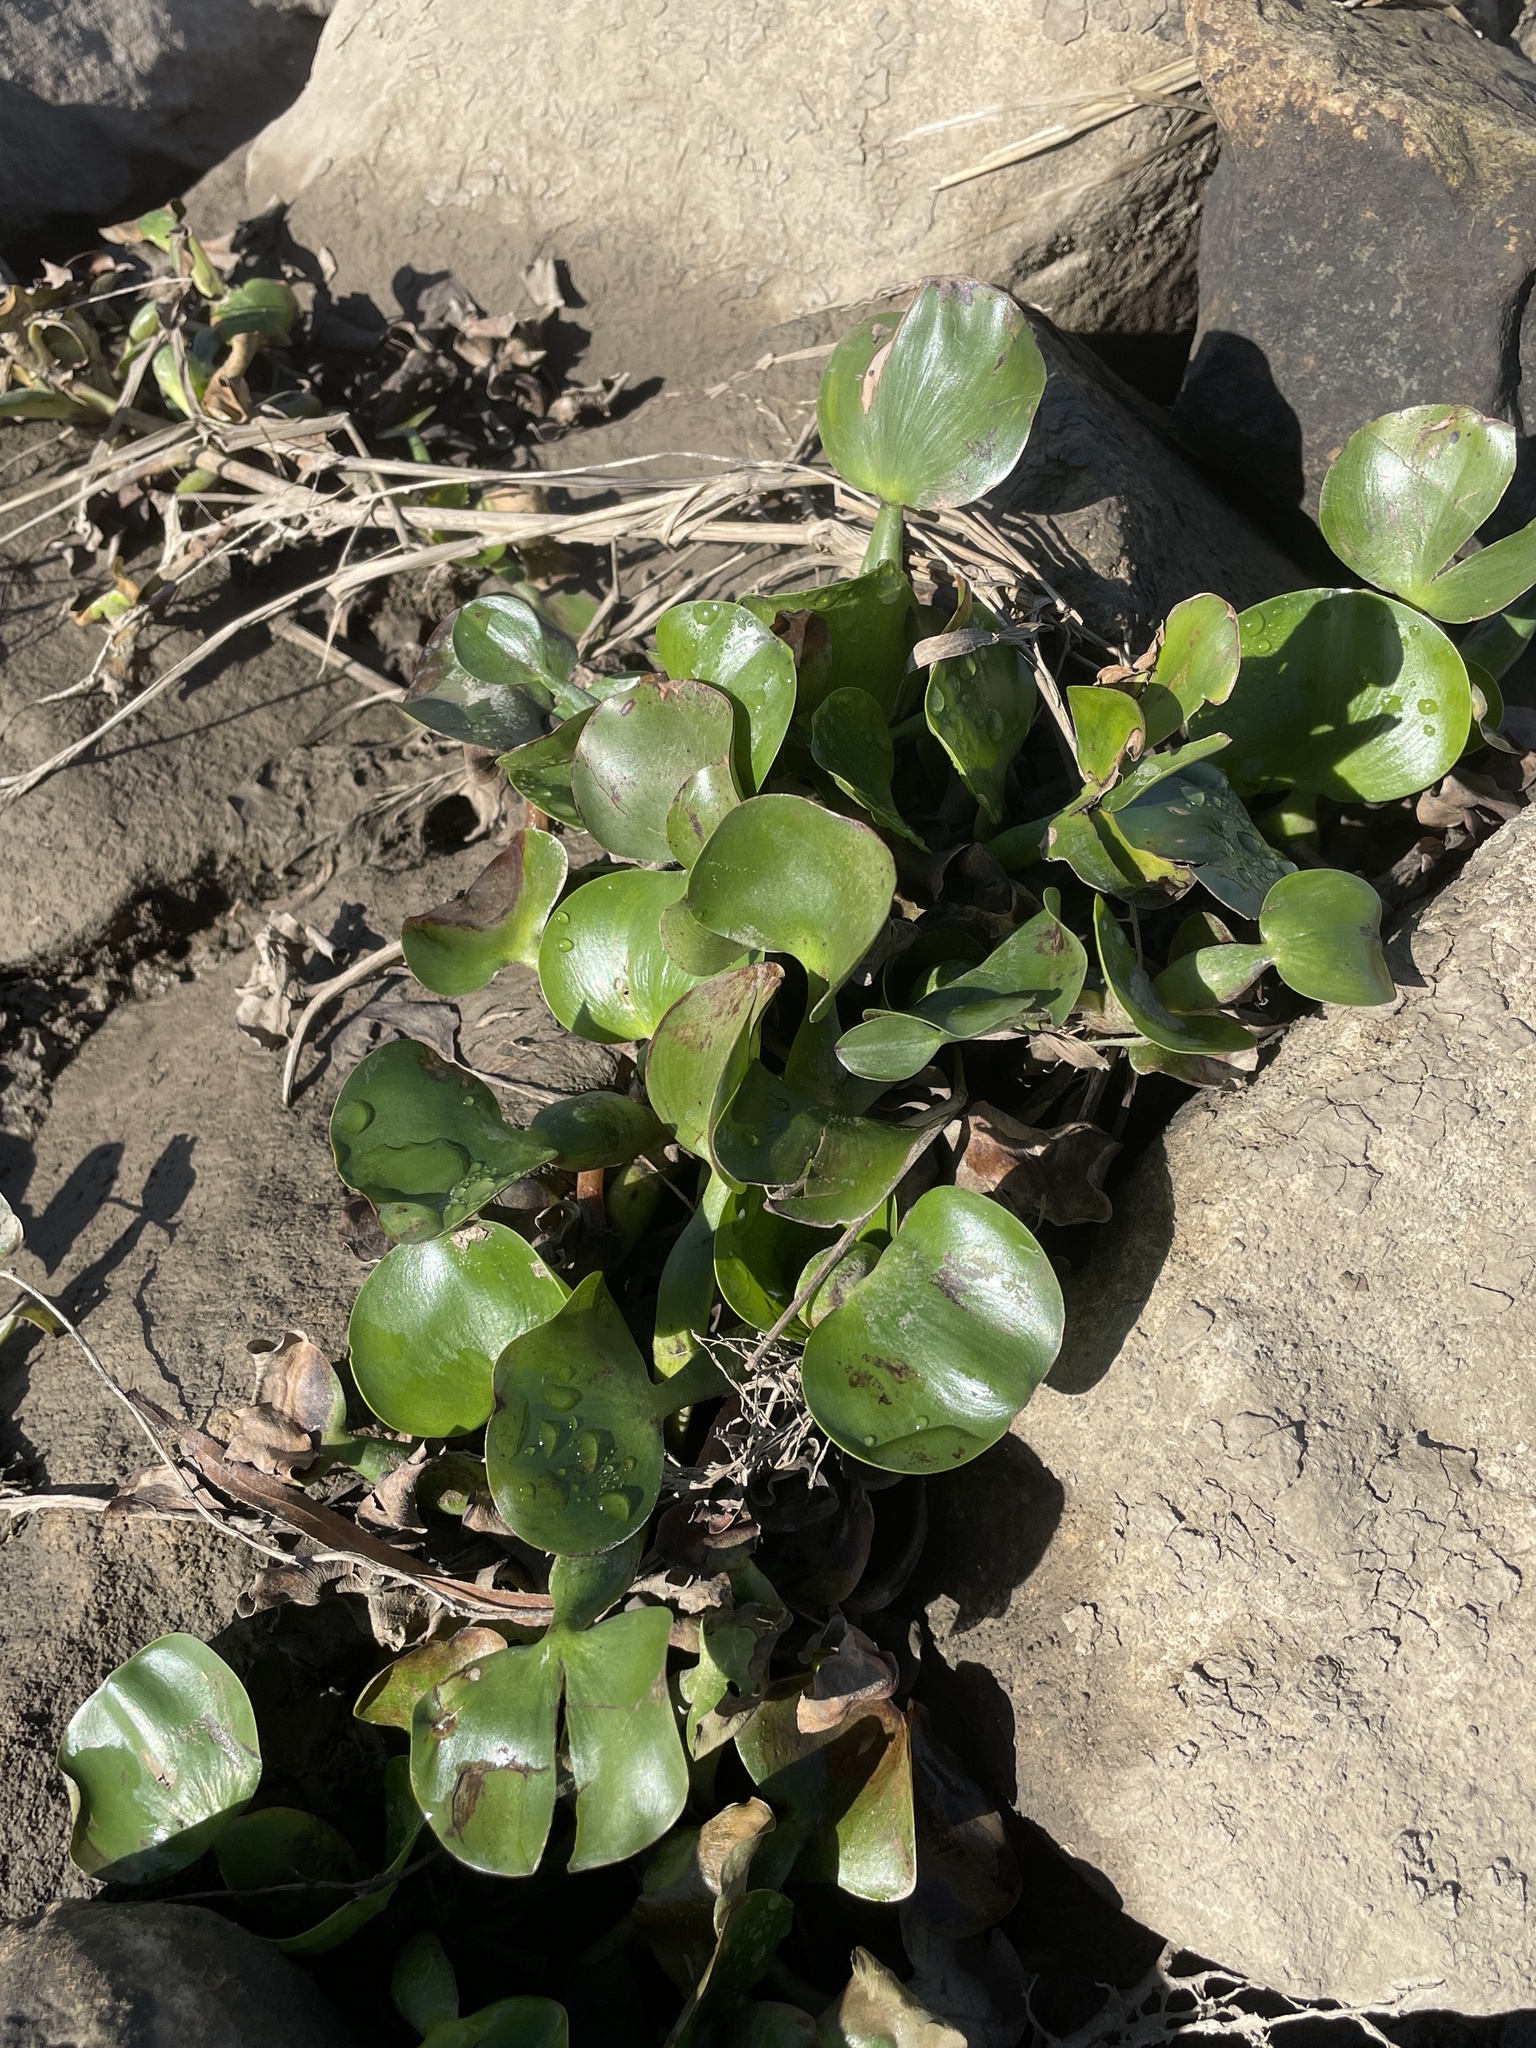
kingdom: Plantae
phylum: Tracheophyta
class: Liliopsida
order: Commelinales
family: Pontederiaceae
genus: Pontederia
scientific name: Pontederia crassipes
